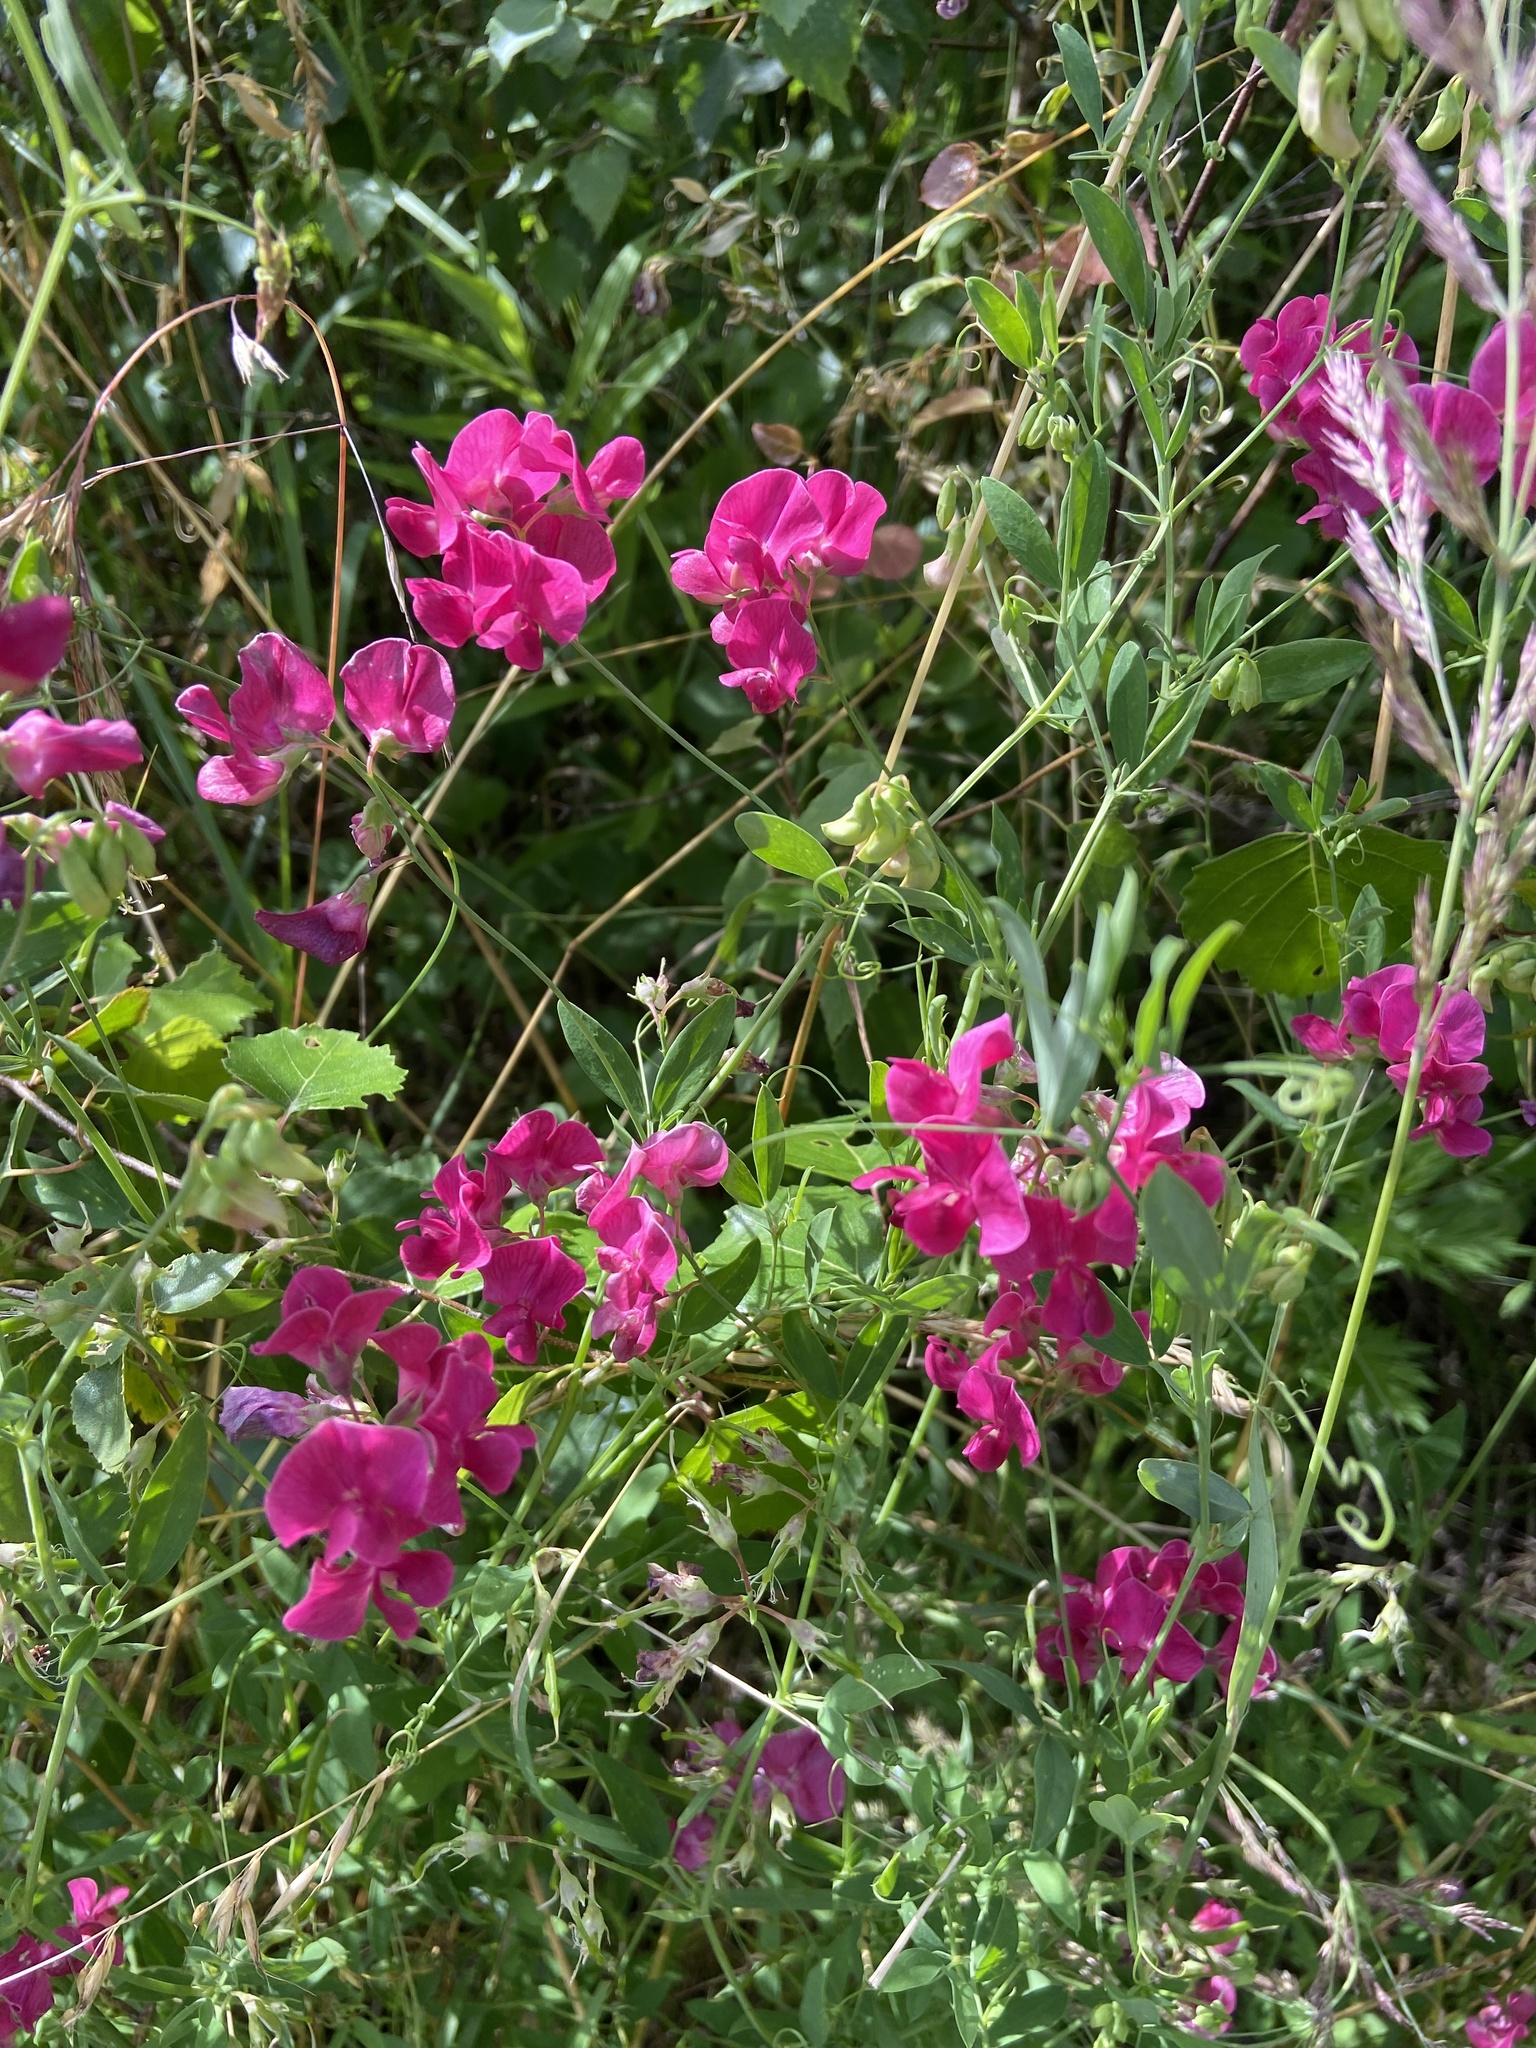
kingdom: Plantae
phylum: Tracheophyta
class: Magnoliopsida
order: Fabales
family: Fabaceae
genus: Lathyrus
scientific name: Lathyrus tuberosus
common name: Tuberous pea
